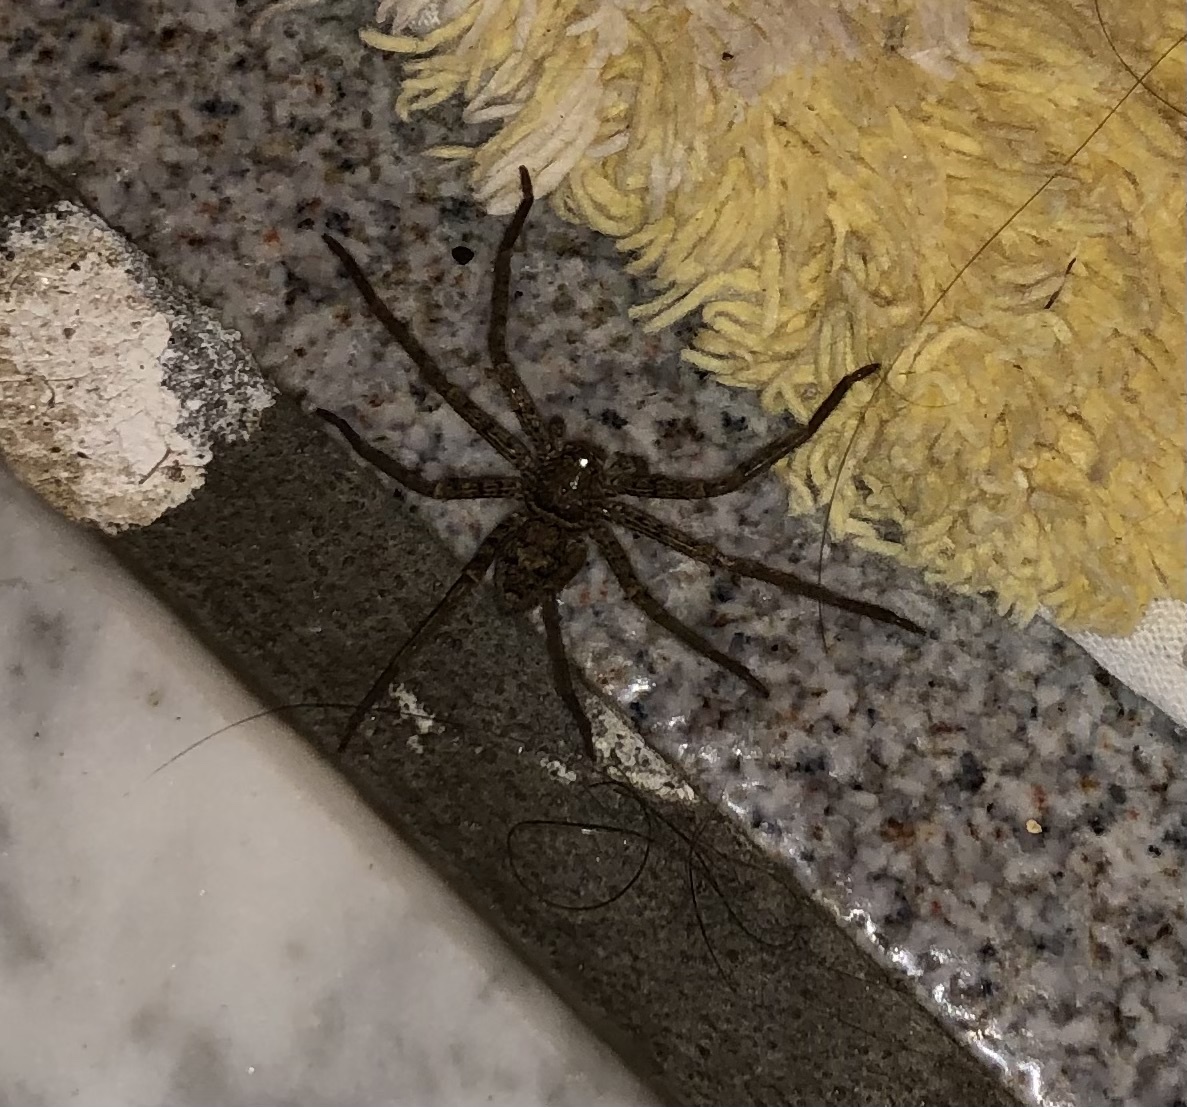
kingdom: Animalia
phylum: Arthropoda
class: Arachnida
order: Araneae
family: Sparassidae
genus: Heteropoda
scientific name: Heteropoda venatoria
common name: Huntsman spider
